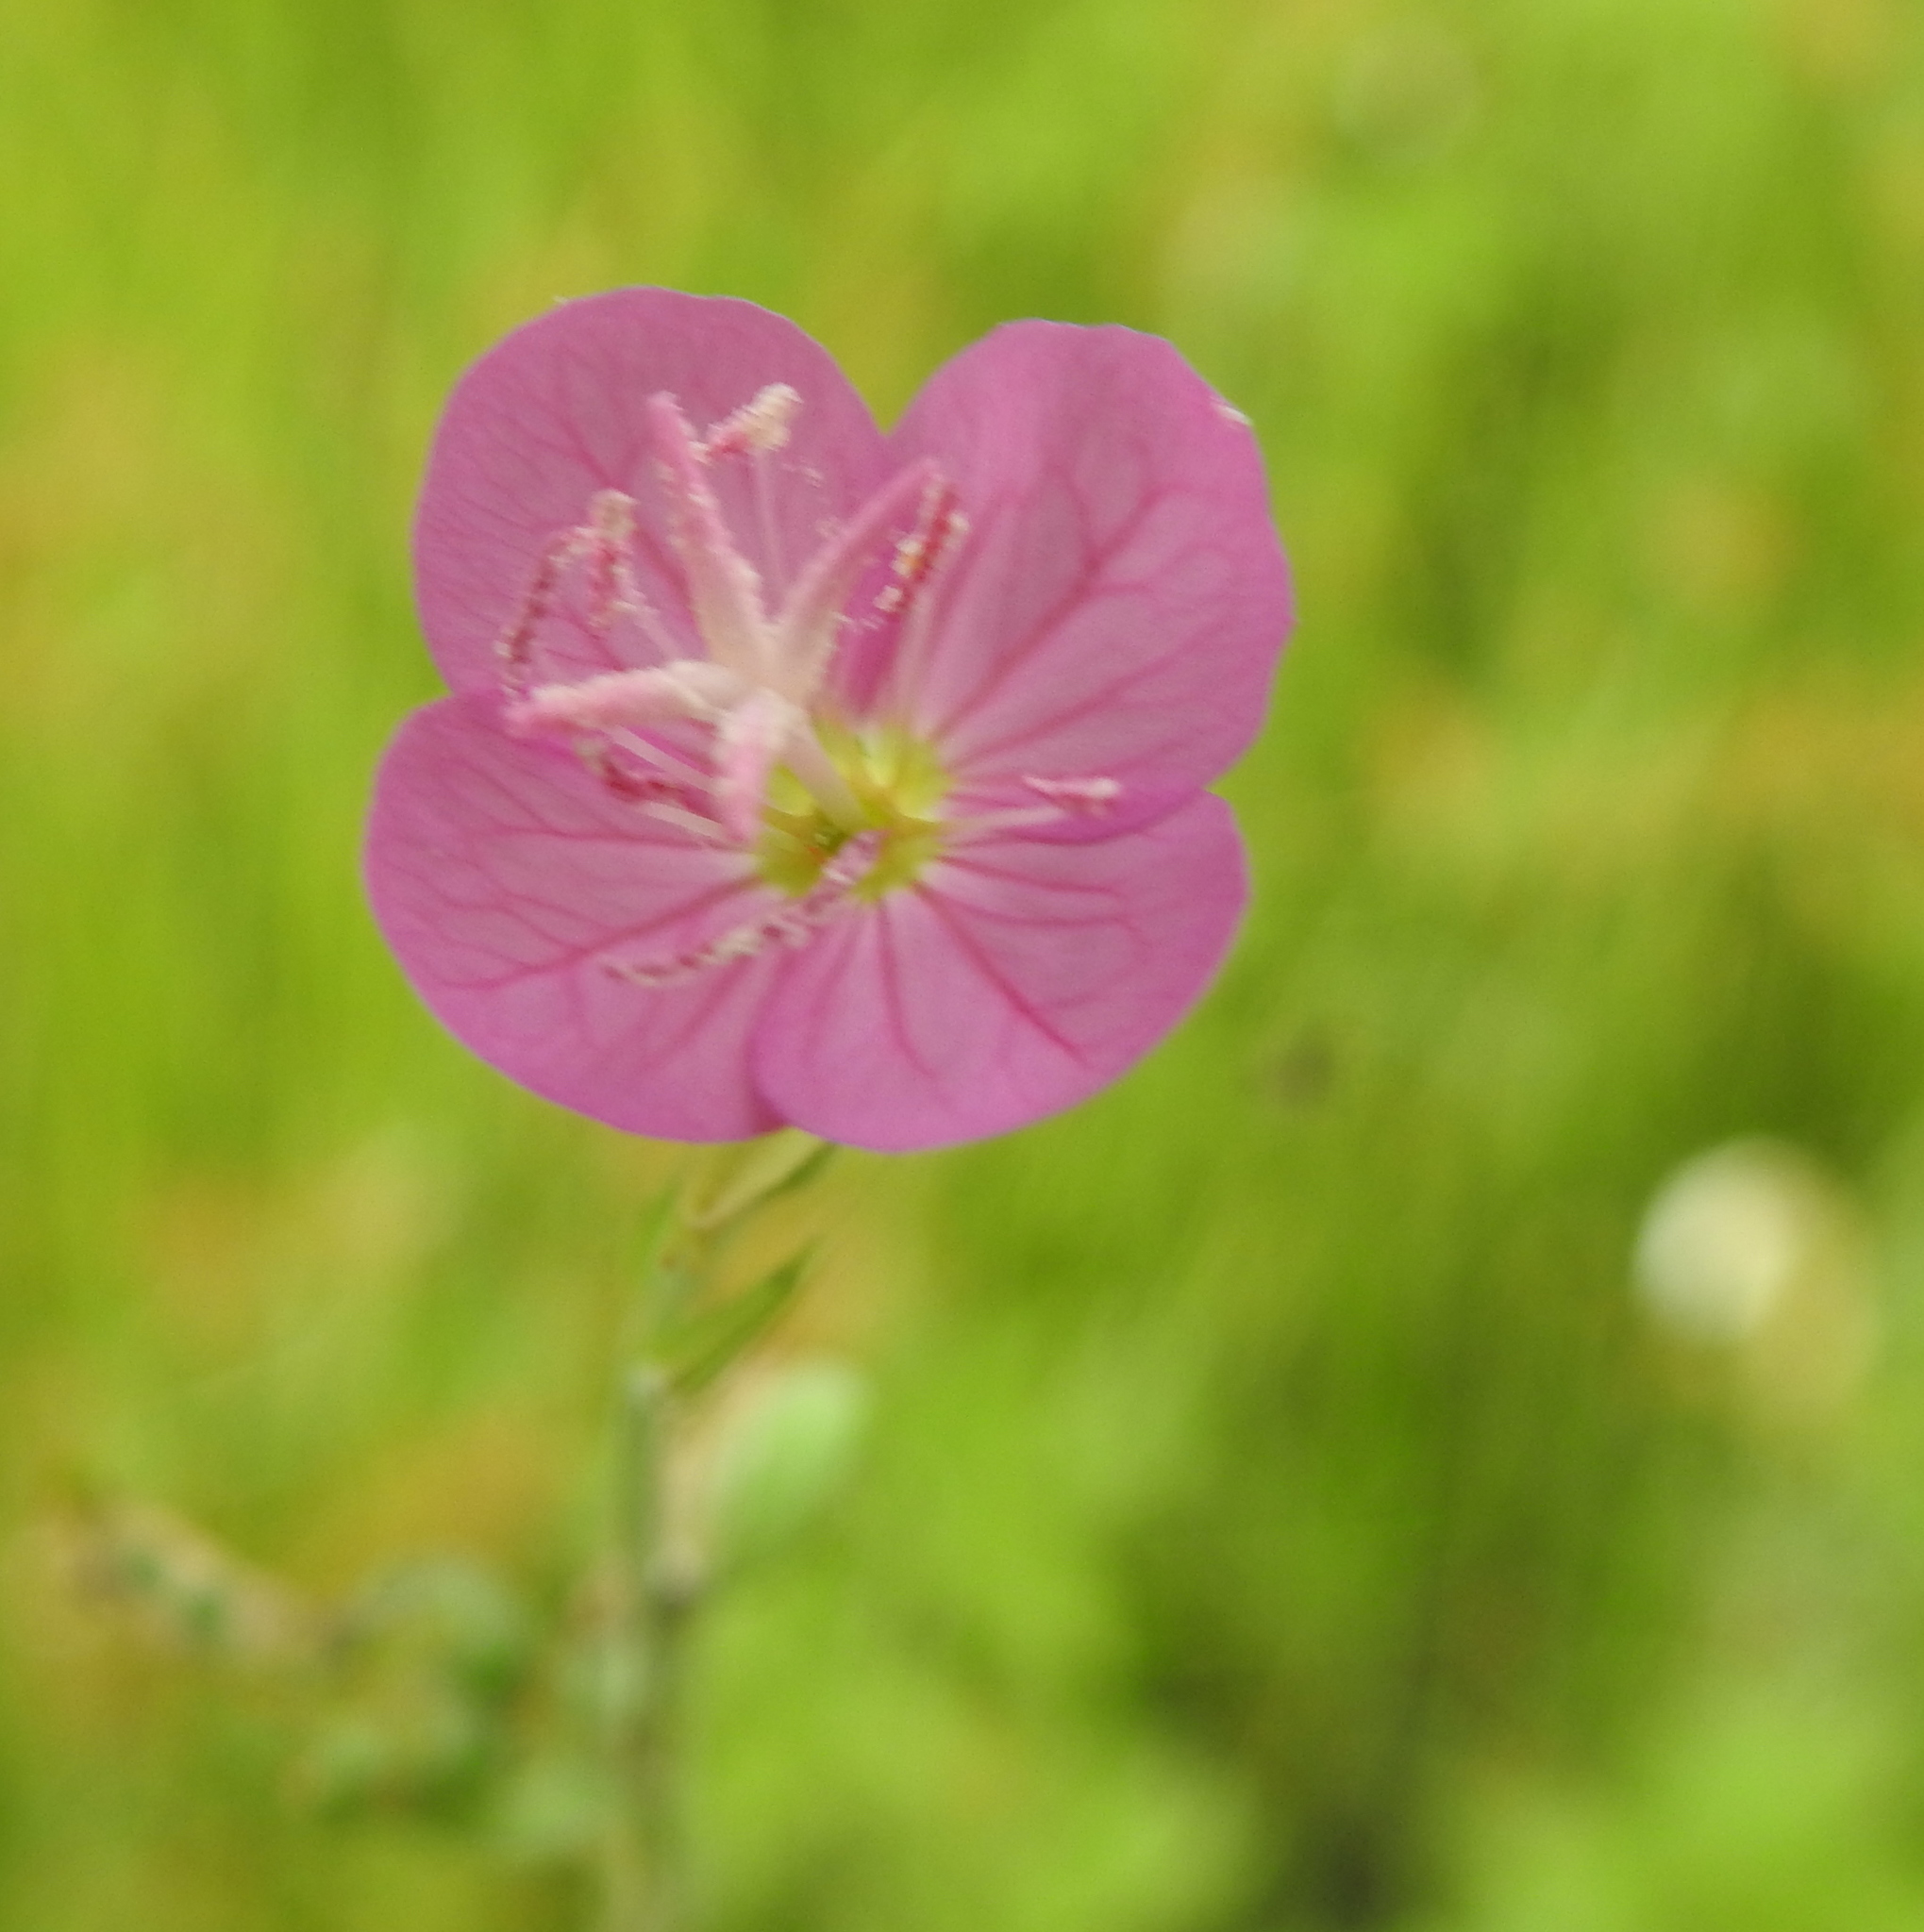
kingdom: Plantae
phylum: Tracheophyta
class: Magnoliopsida
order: Myrtales
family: Onagraceae
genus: Oenothera
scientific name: Oenothera rosea
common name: Rosy evening-primrose
